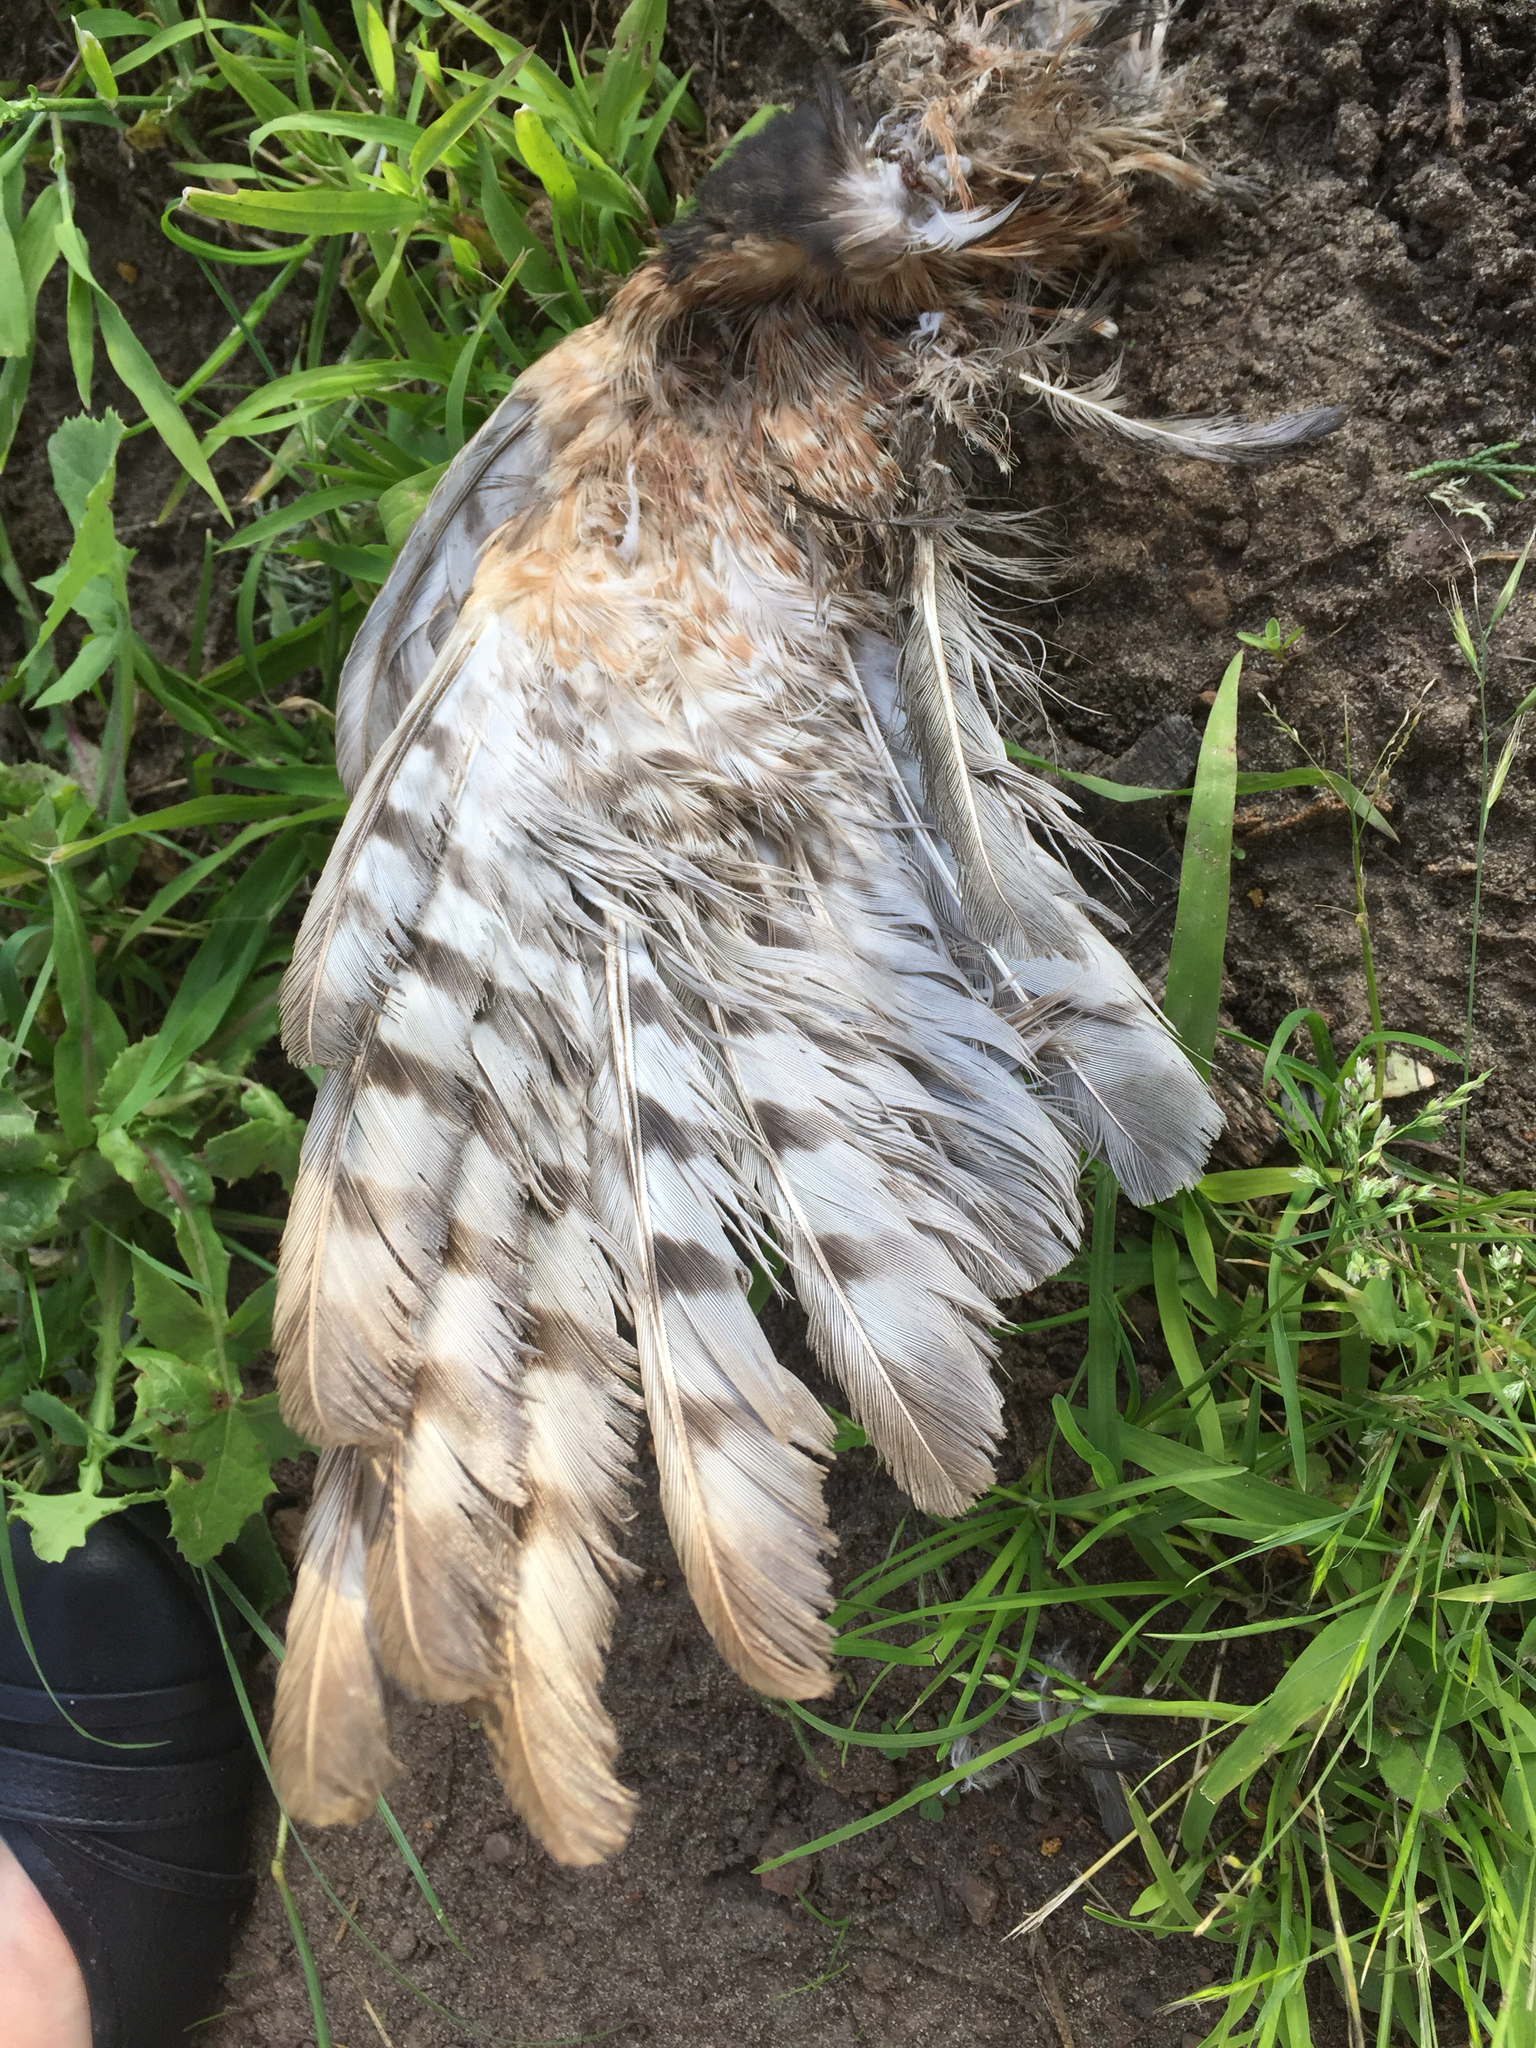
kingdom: Animalia
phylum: Chordata
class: Aves
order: Accipitriformes
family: Accipitridae
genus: Accipiter
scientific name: Accipiter striatus
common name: Sharp-shinned hawk
